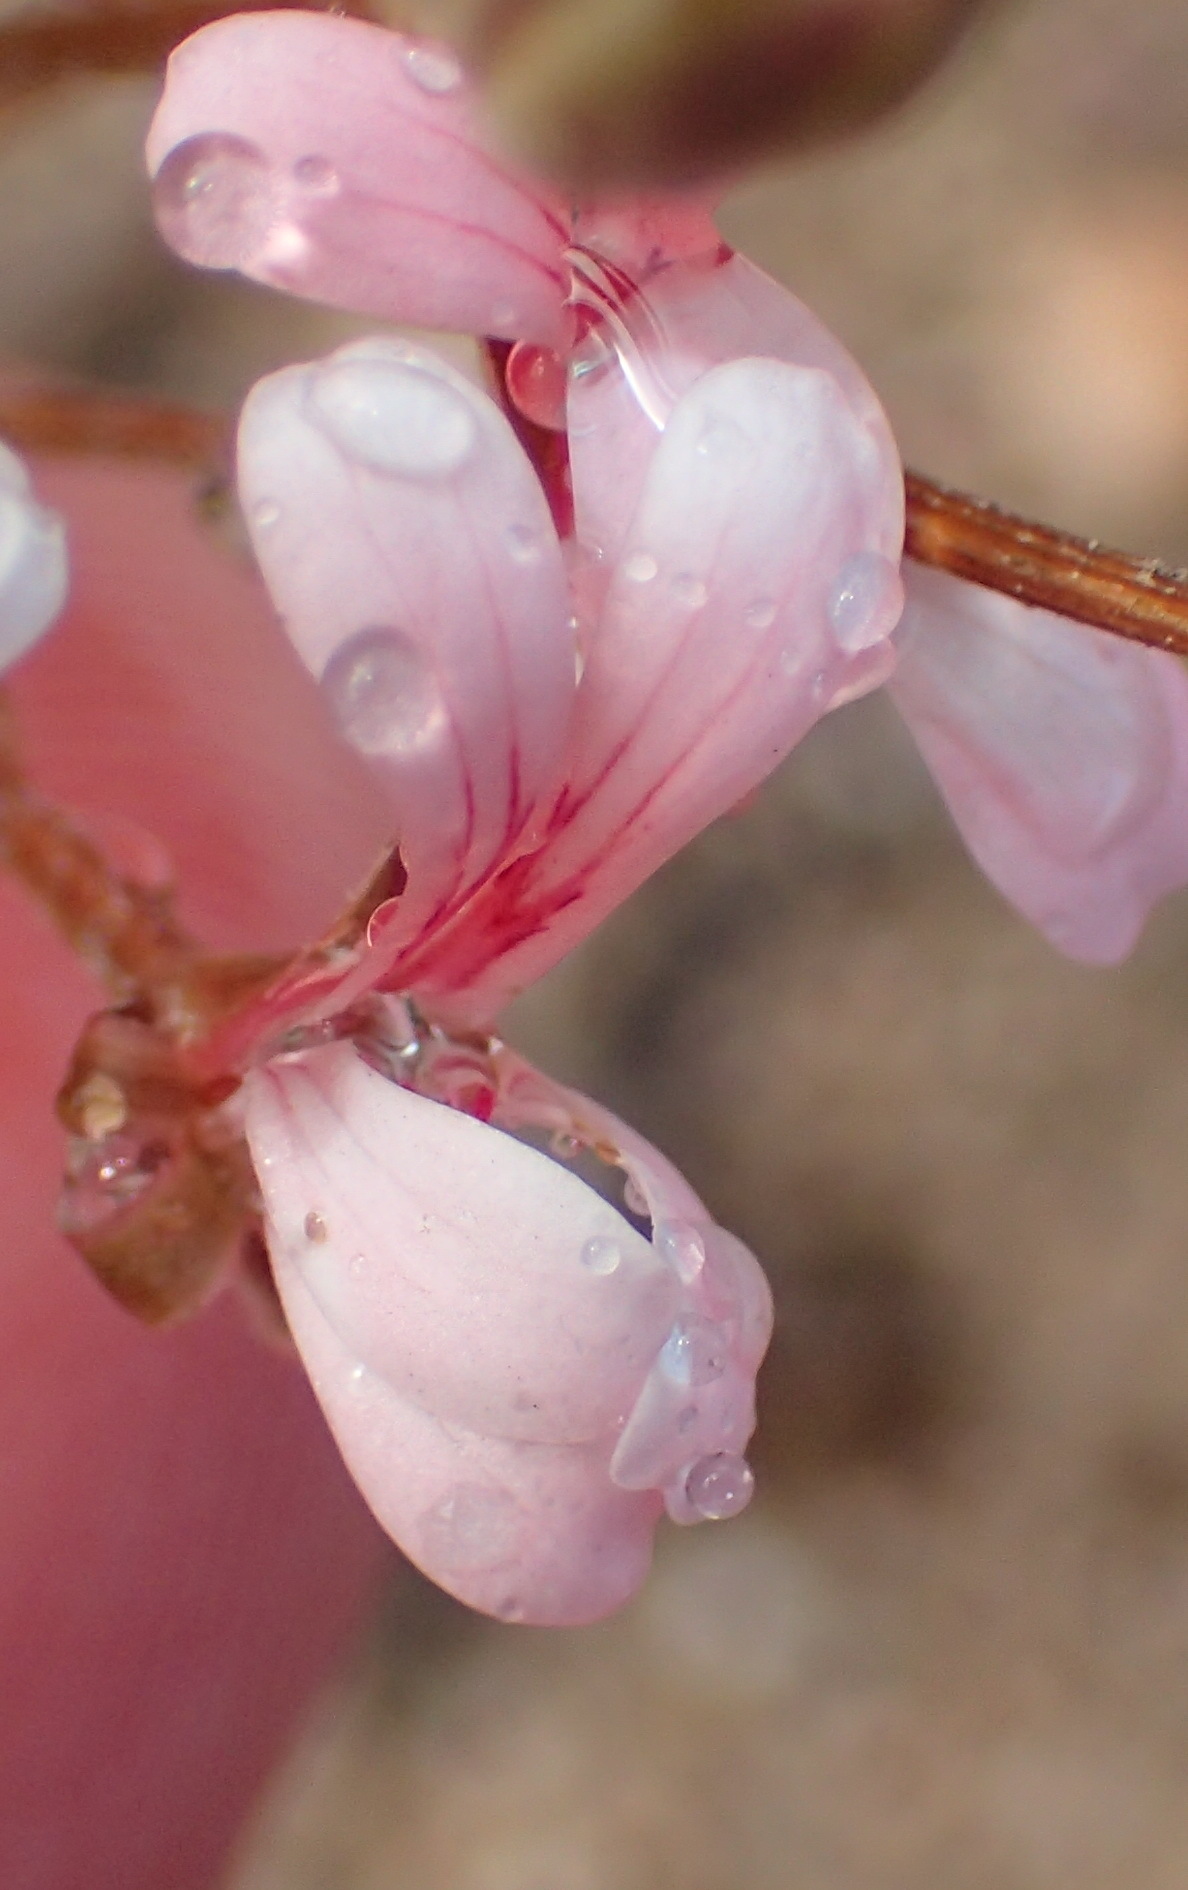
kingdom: Plantae
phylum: Tracheophyta
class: Magnoliopsida
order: Geraniales
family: Geraniaceae
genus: Pelargonium
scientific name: Pelargonium gracillimum
